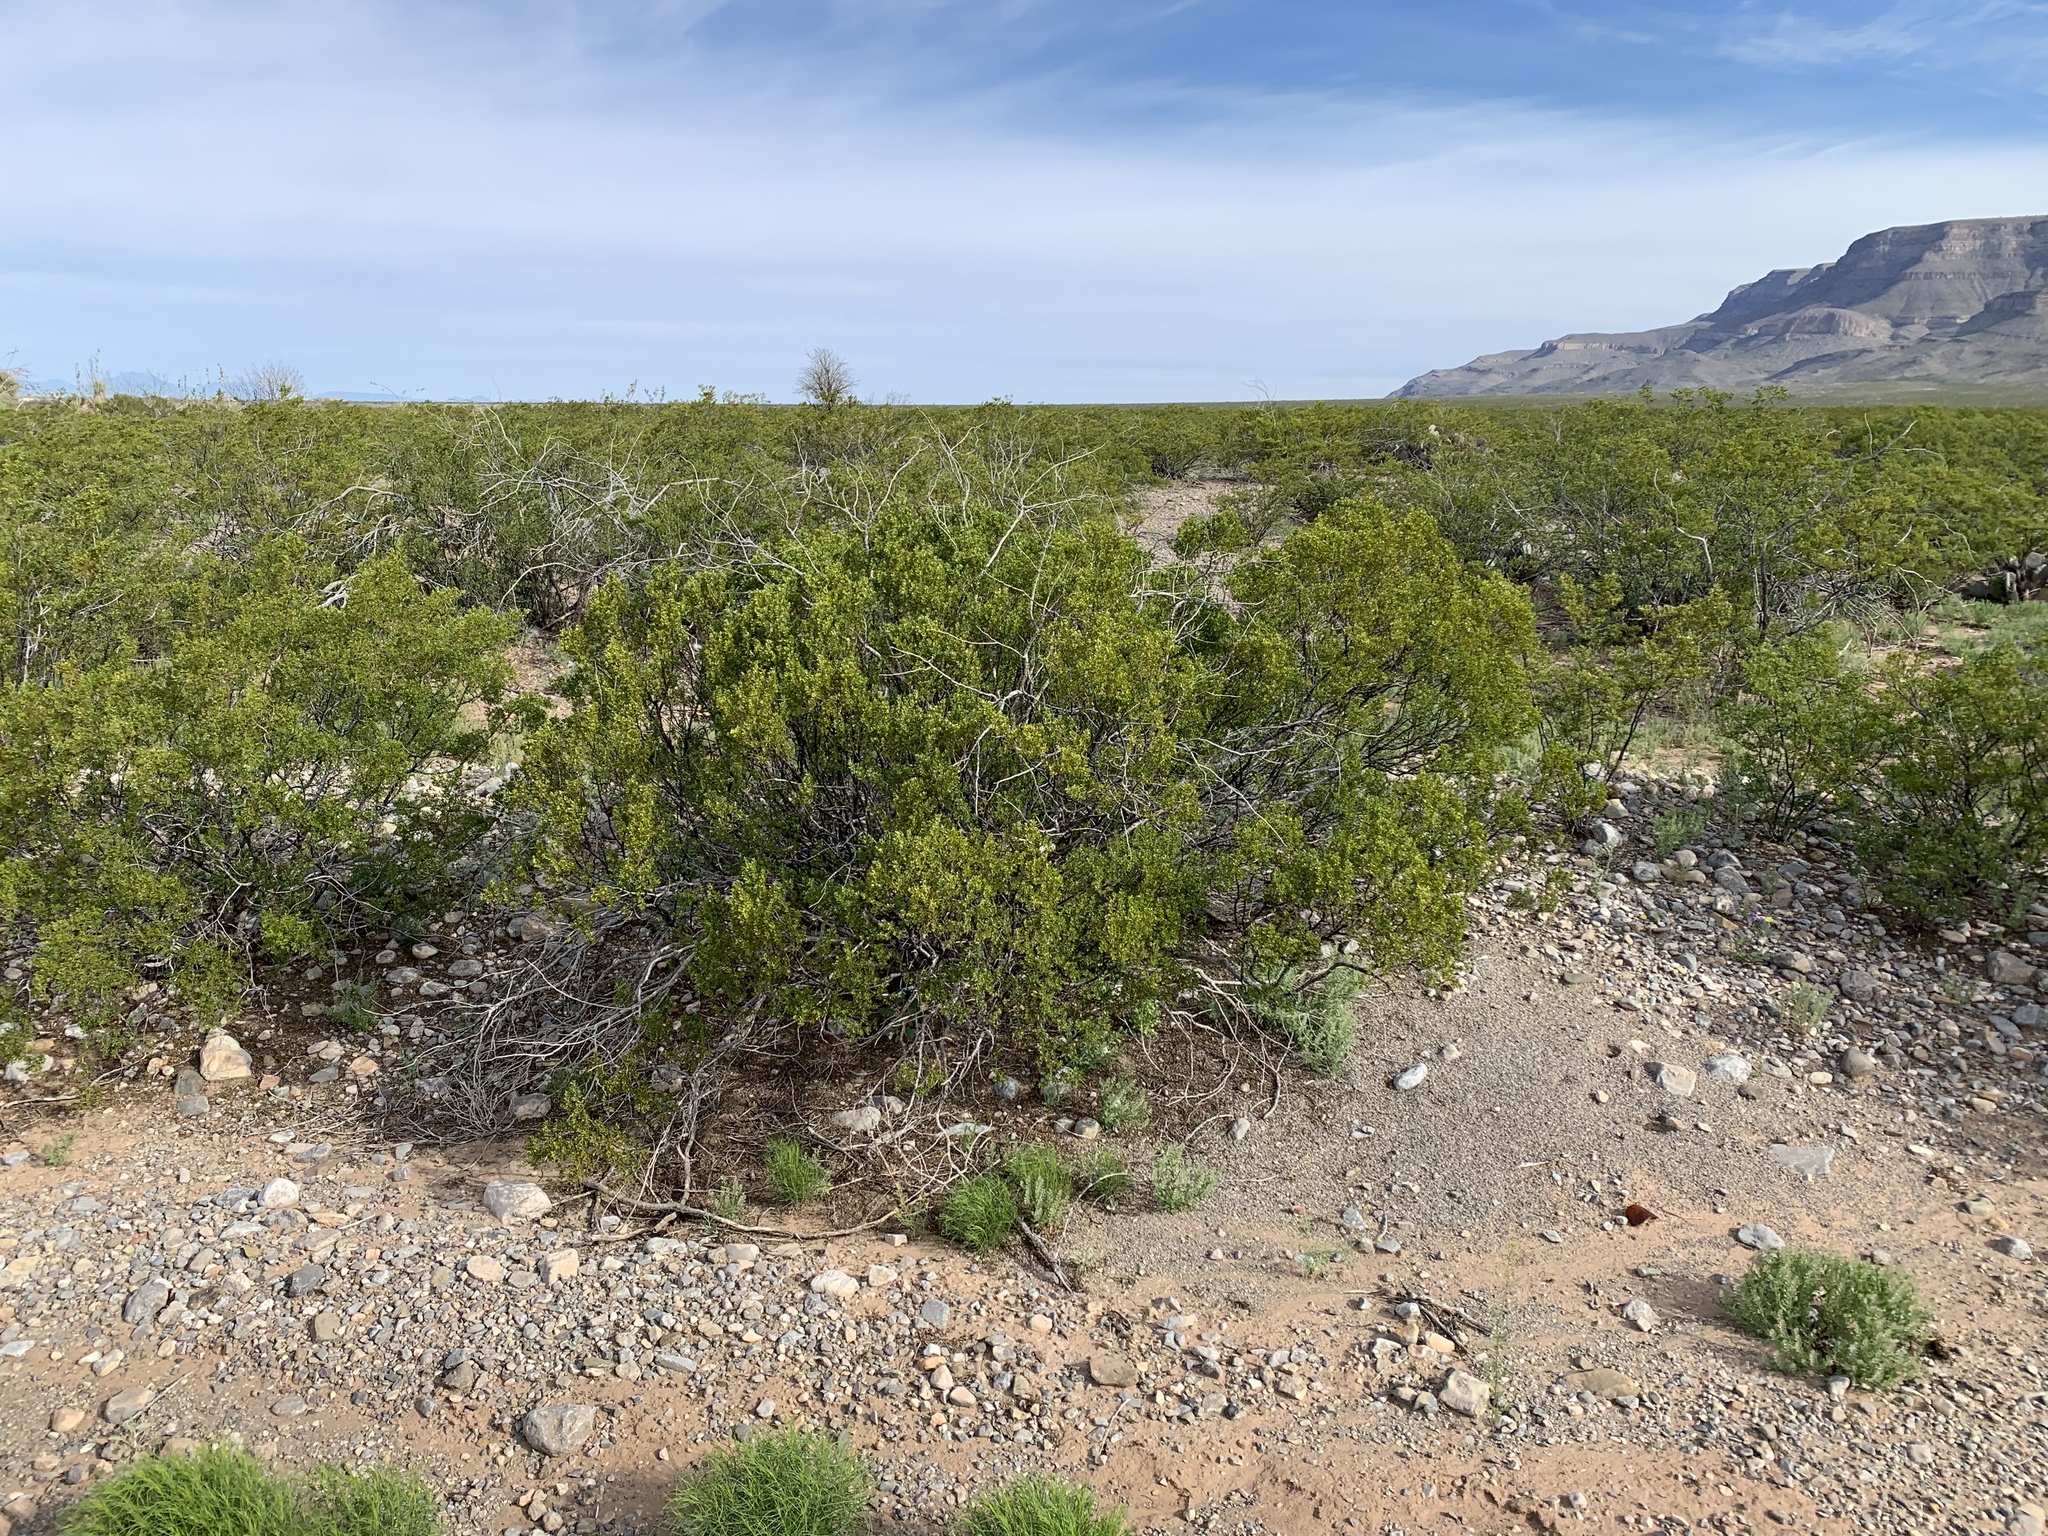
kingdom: Plantae
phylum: Tracheophyta
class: Magnoliopsida
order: Zygophyllales
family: Zygophyllaceae
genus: Larrea
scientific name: Larrea tridentata
